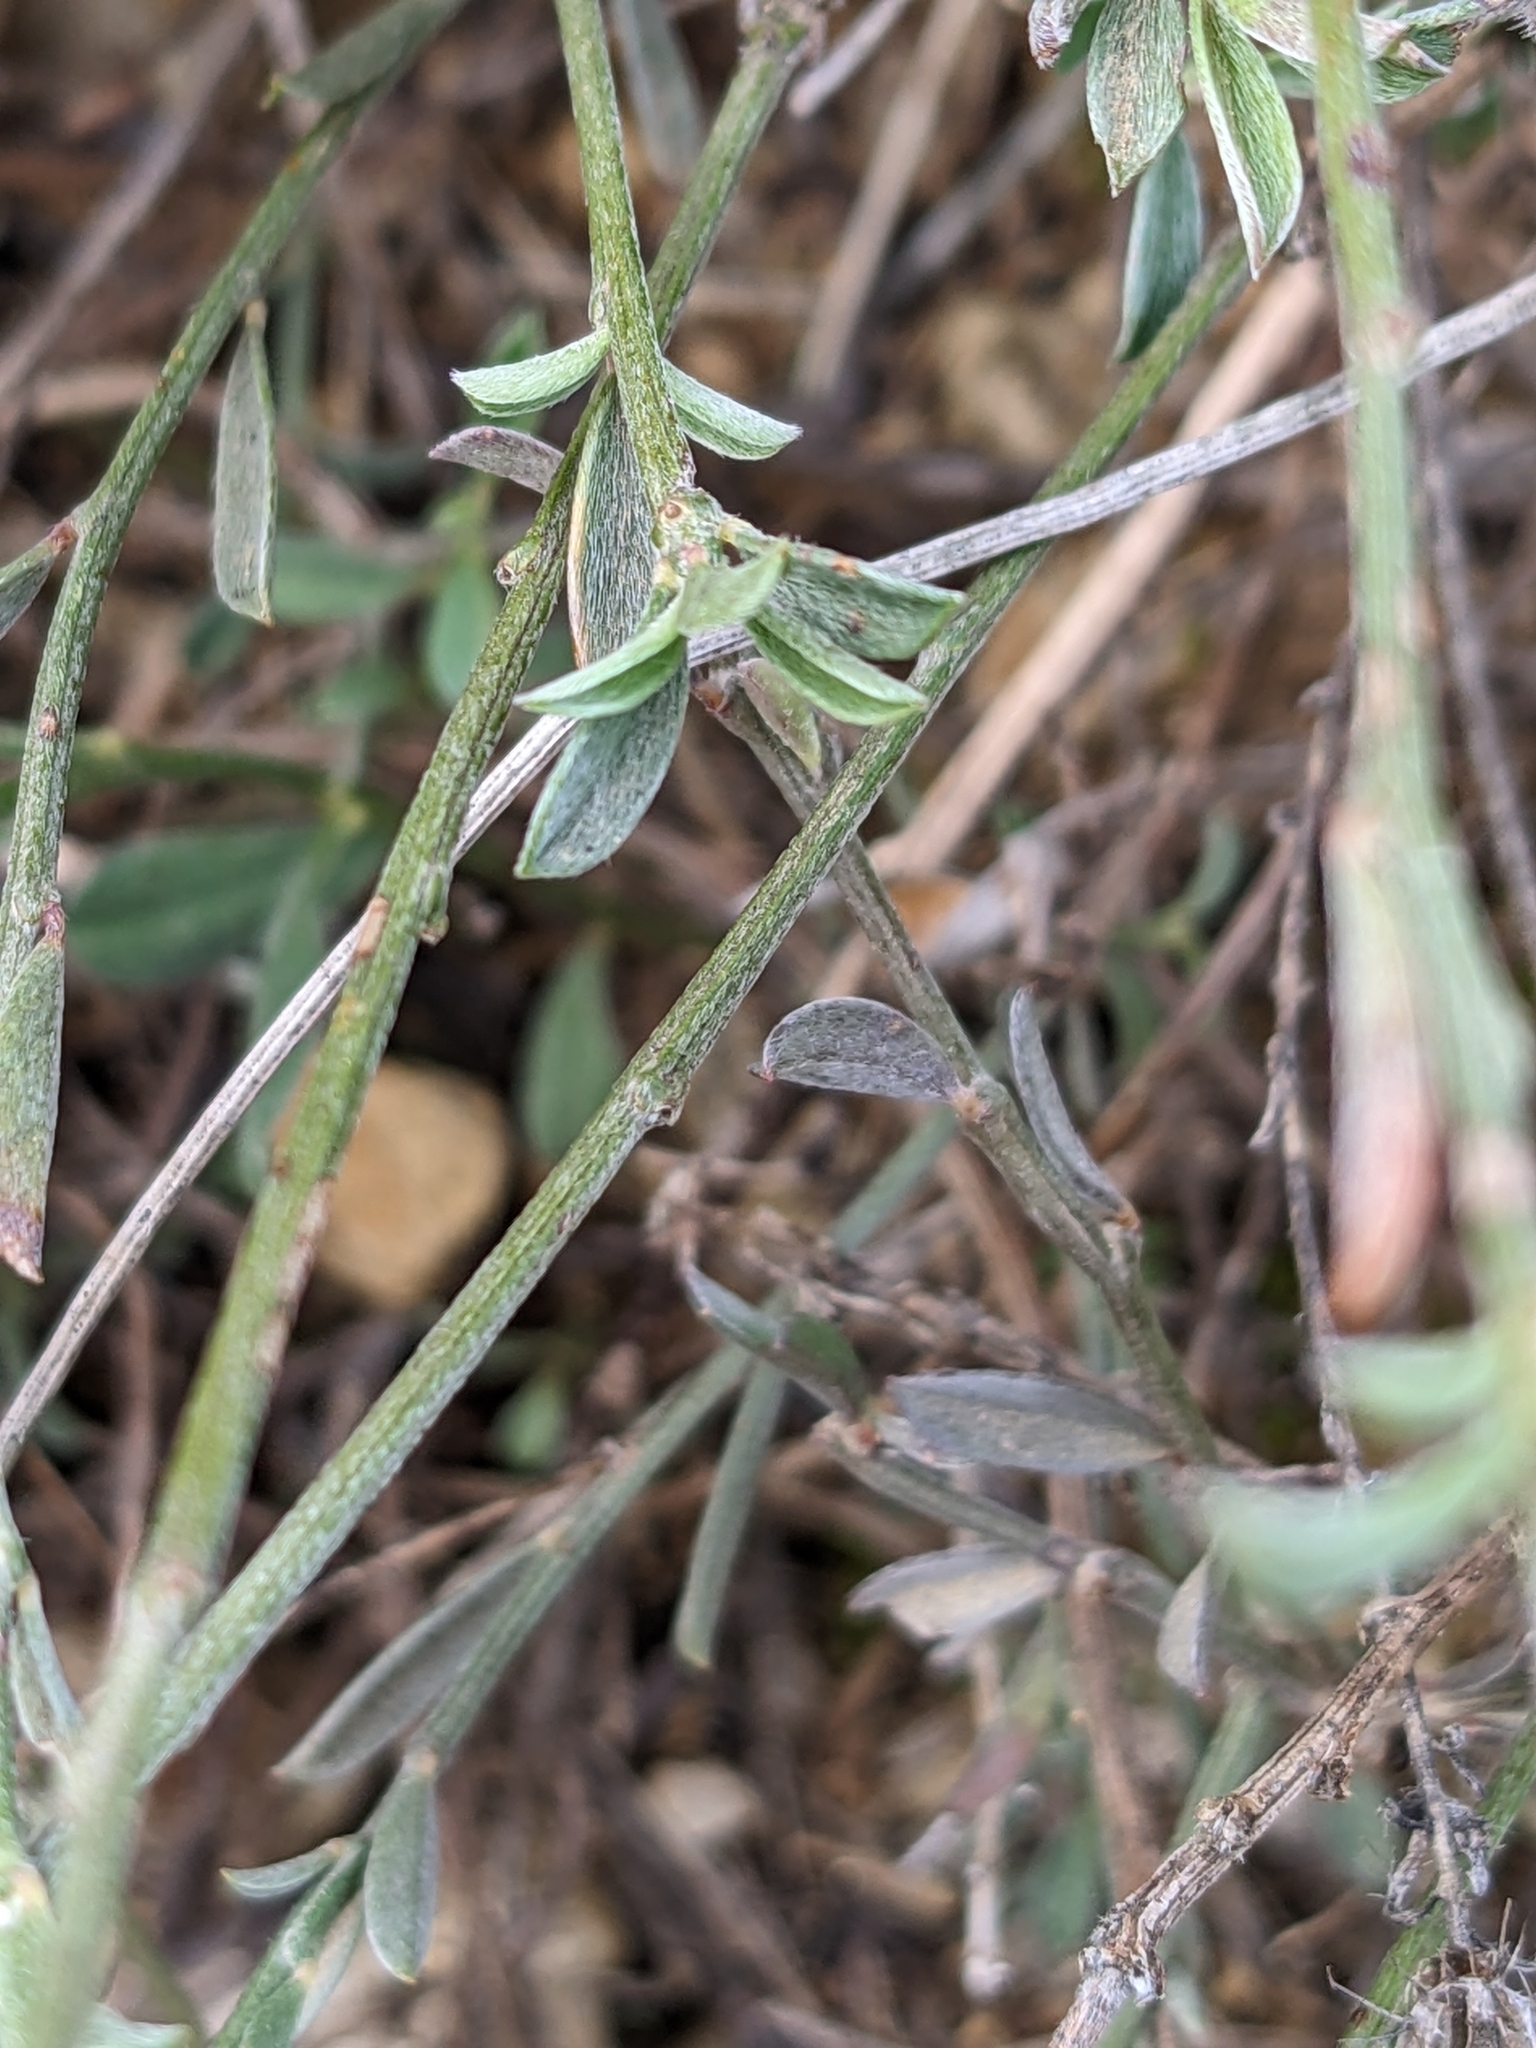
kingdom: Plantae
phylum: Tracheophyta
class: Magnoliopsida
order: Fabales
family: Fabaceae
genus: Argyrolobium
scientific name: Argyrolobium zanonii
